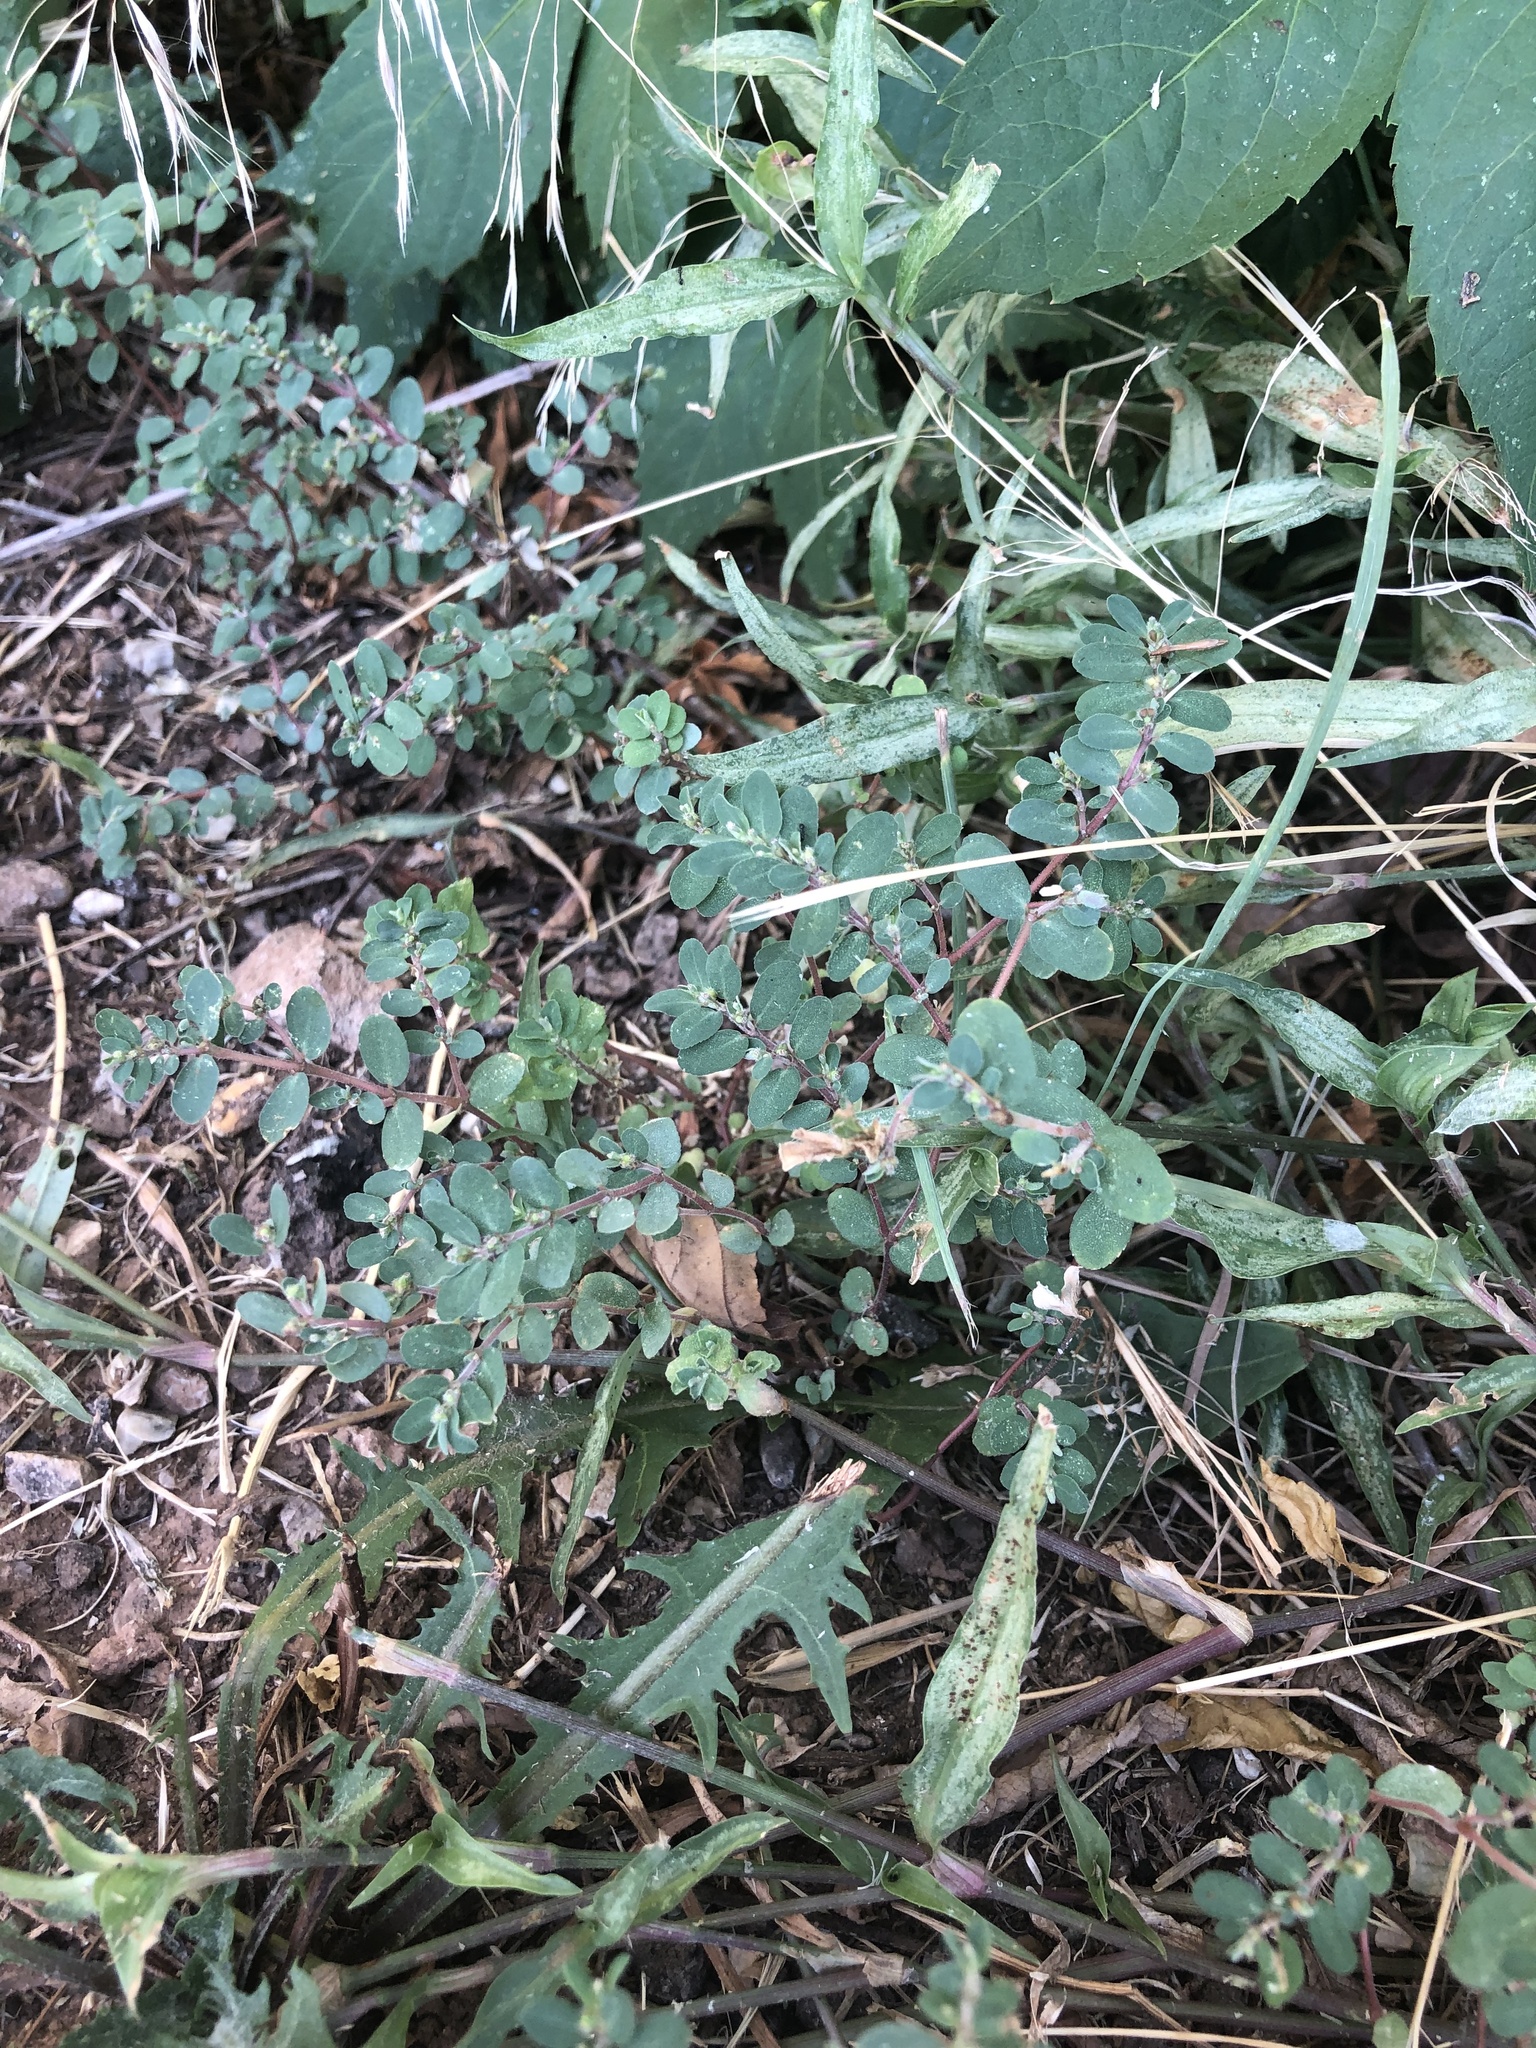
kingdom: Plantae
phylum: Tracheophyta
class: Magnoliopsida
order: Malpighiales
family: Euphorbiaceae
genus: Euphorbia
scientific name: Euphorbia prostrata
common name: Prostrate sandmat
